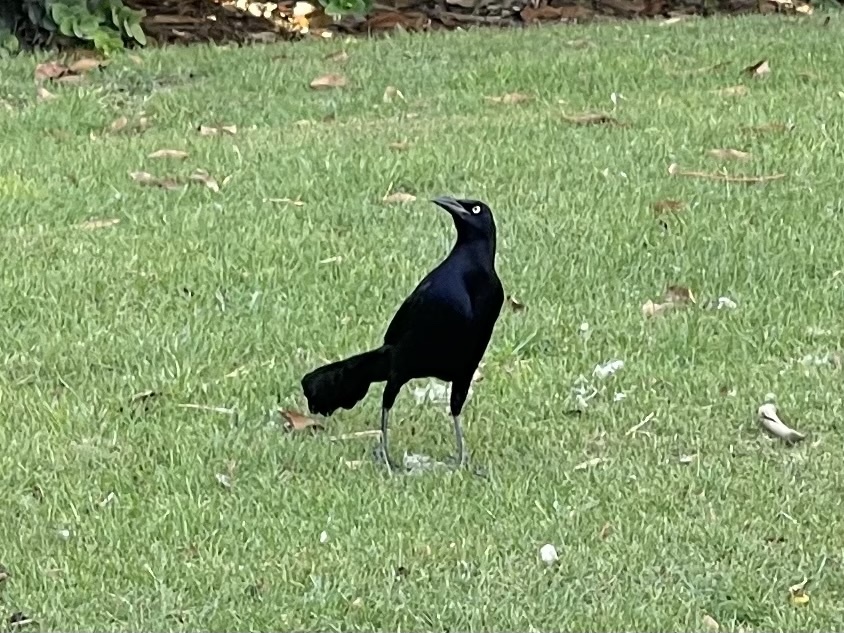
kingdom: Animalia
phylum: Chordata
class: Aves
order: Passeriformes
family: Icteridae
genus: Quiscalus
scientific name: Quiscalus mexicanus
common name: Great-tailed grackle
